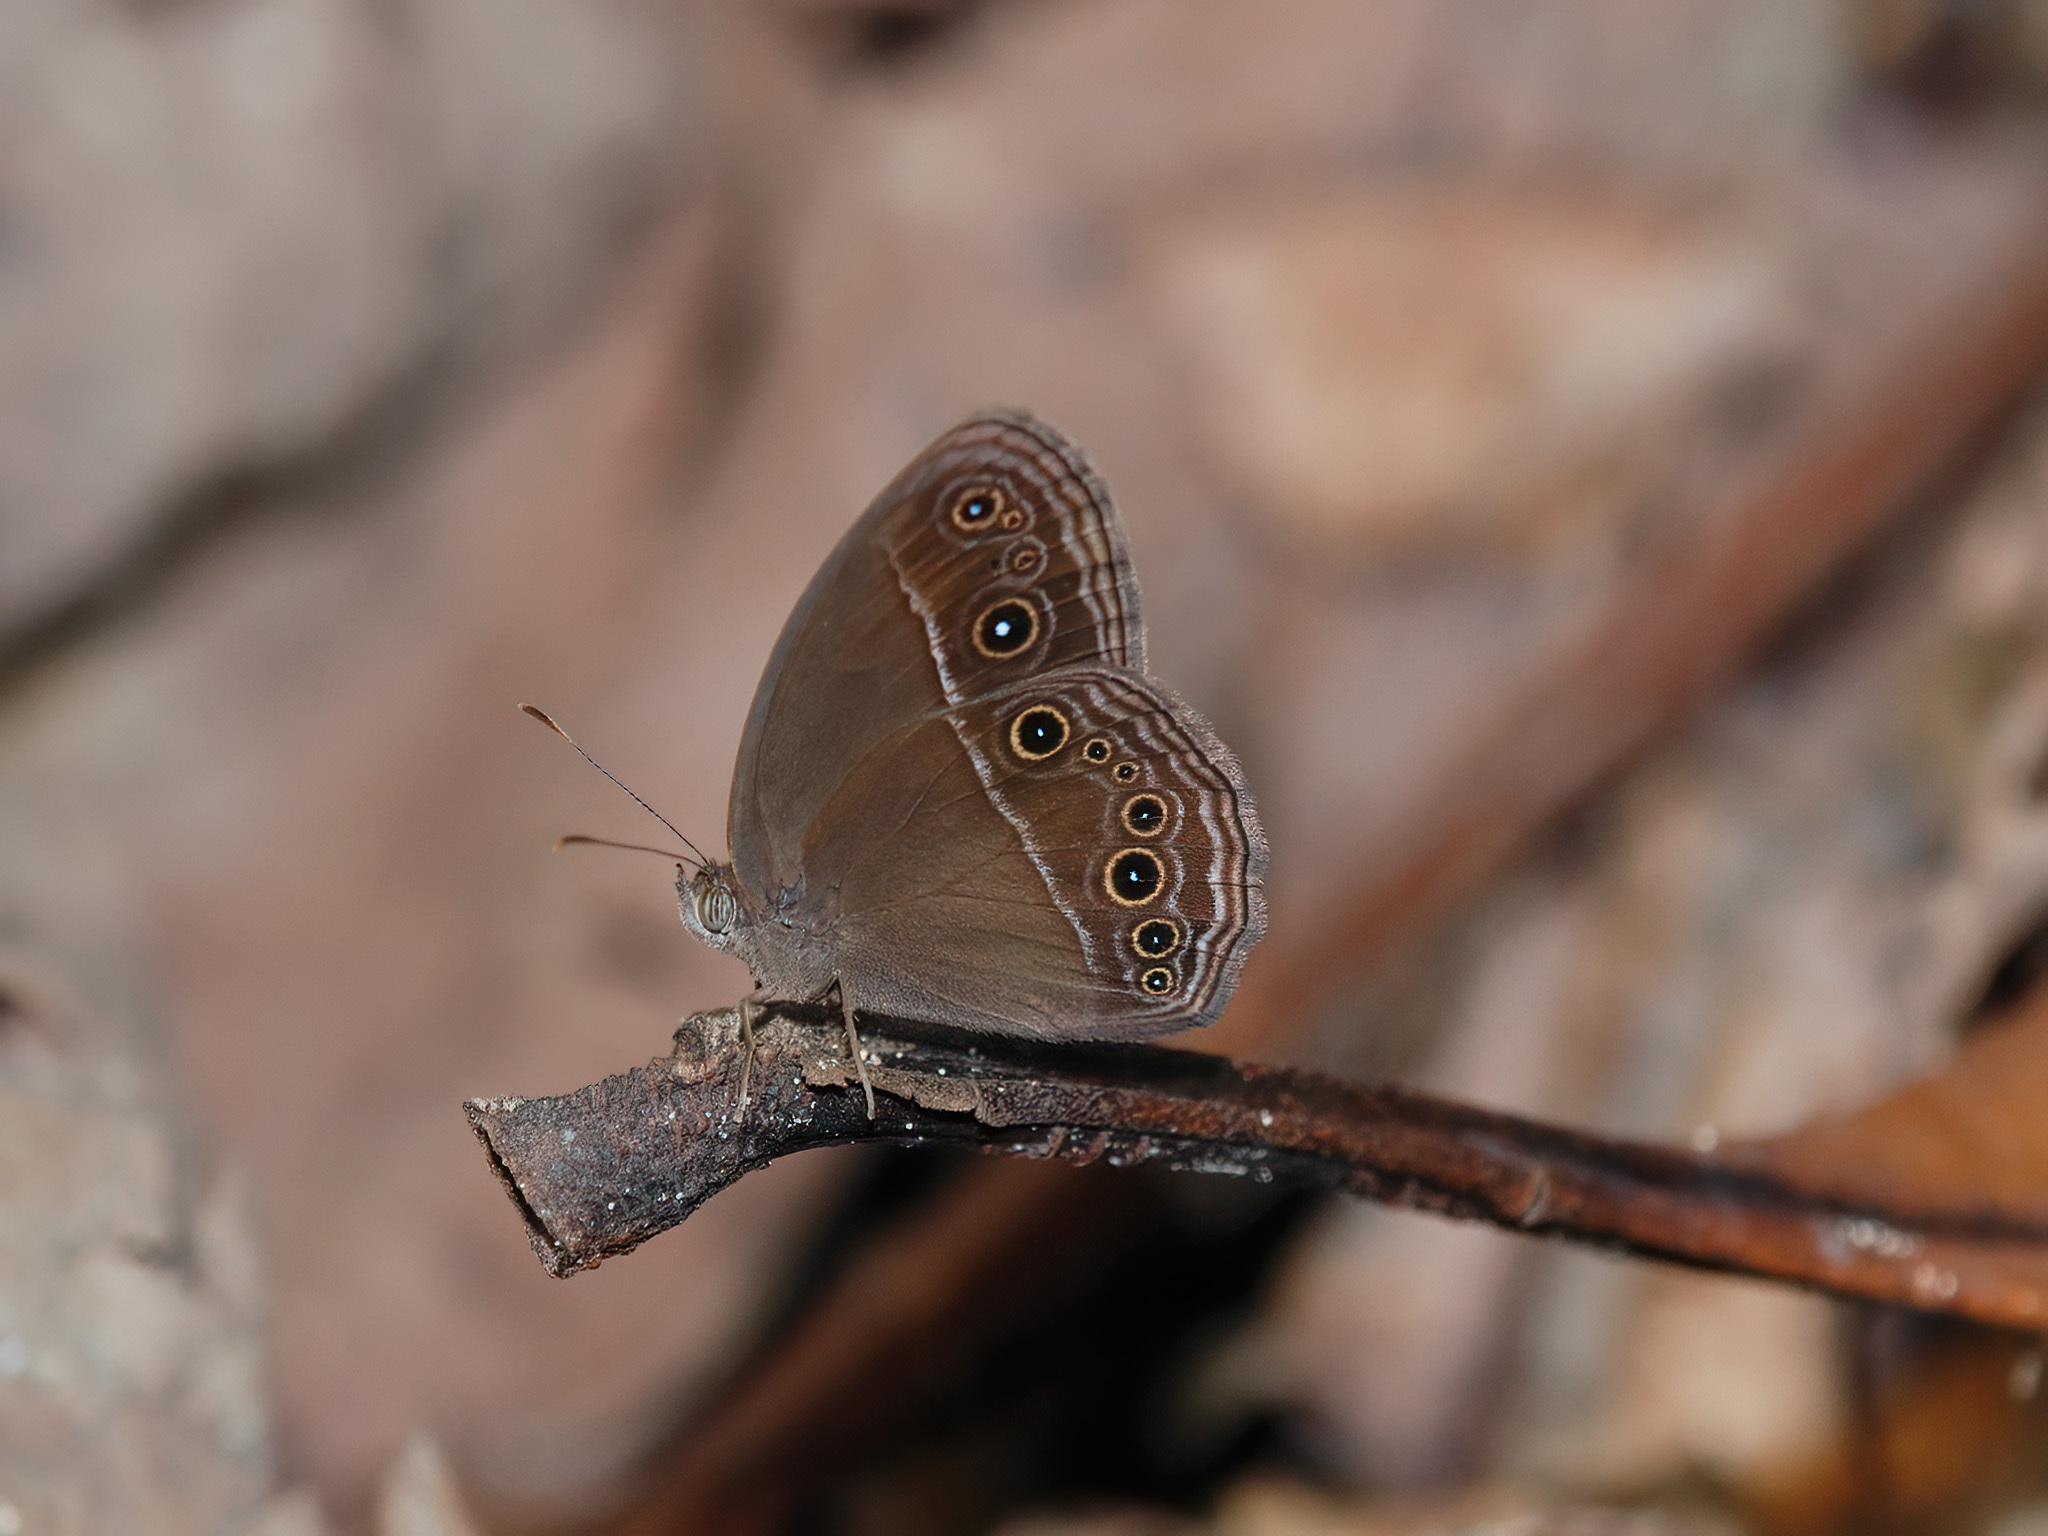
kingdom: Animalia
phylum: Arthropoda
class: Insecta
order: Lepidoptera
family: Nymphalidae
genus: Mycalesis
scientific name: Mycalesis perseus
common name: Dingy bushbrown
